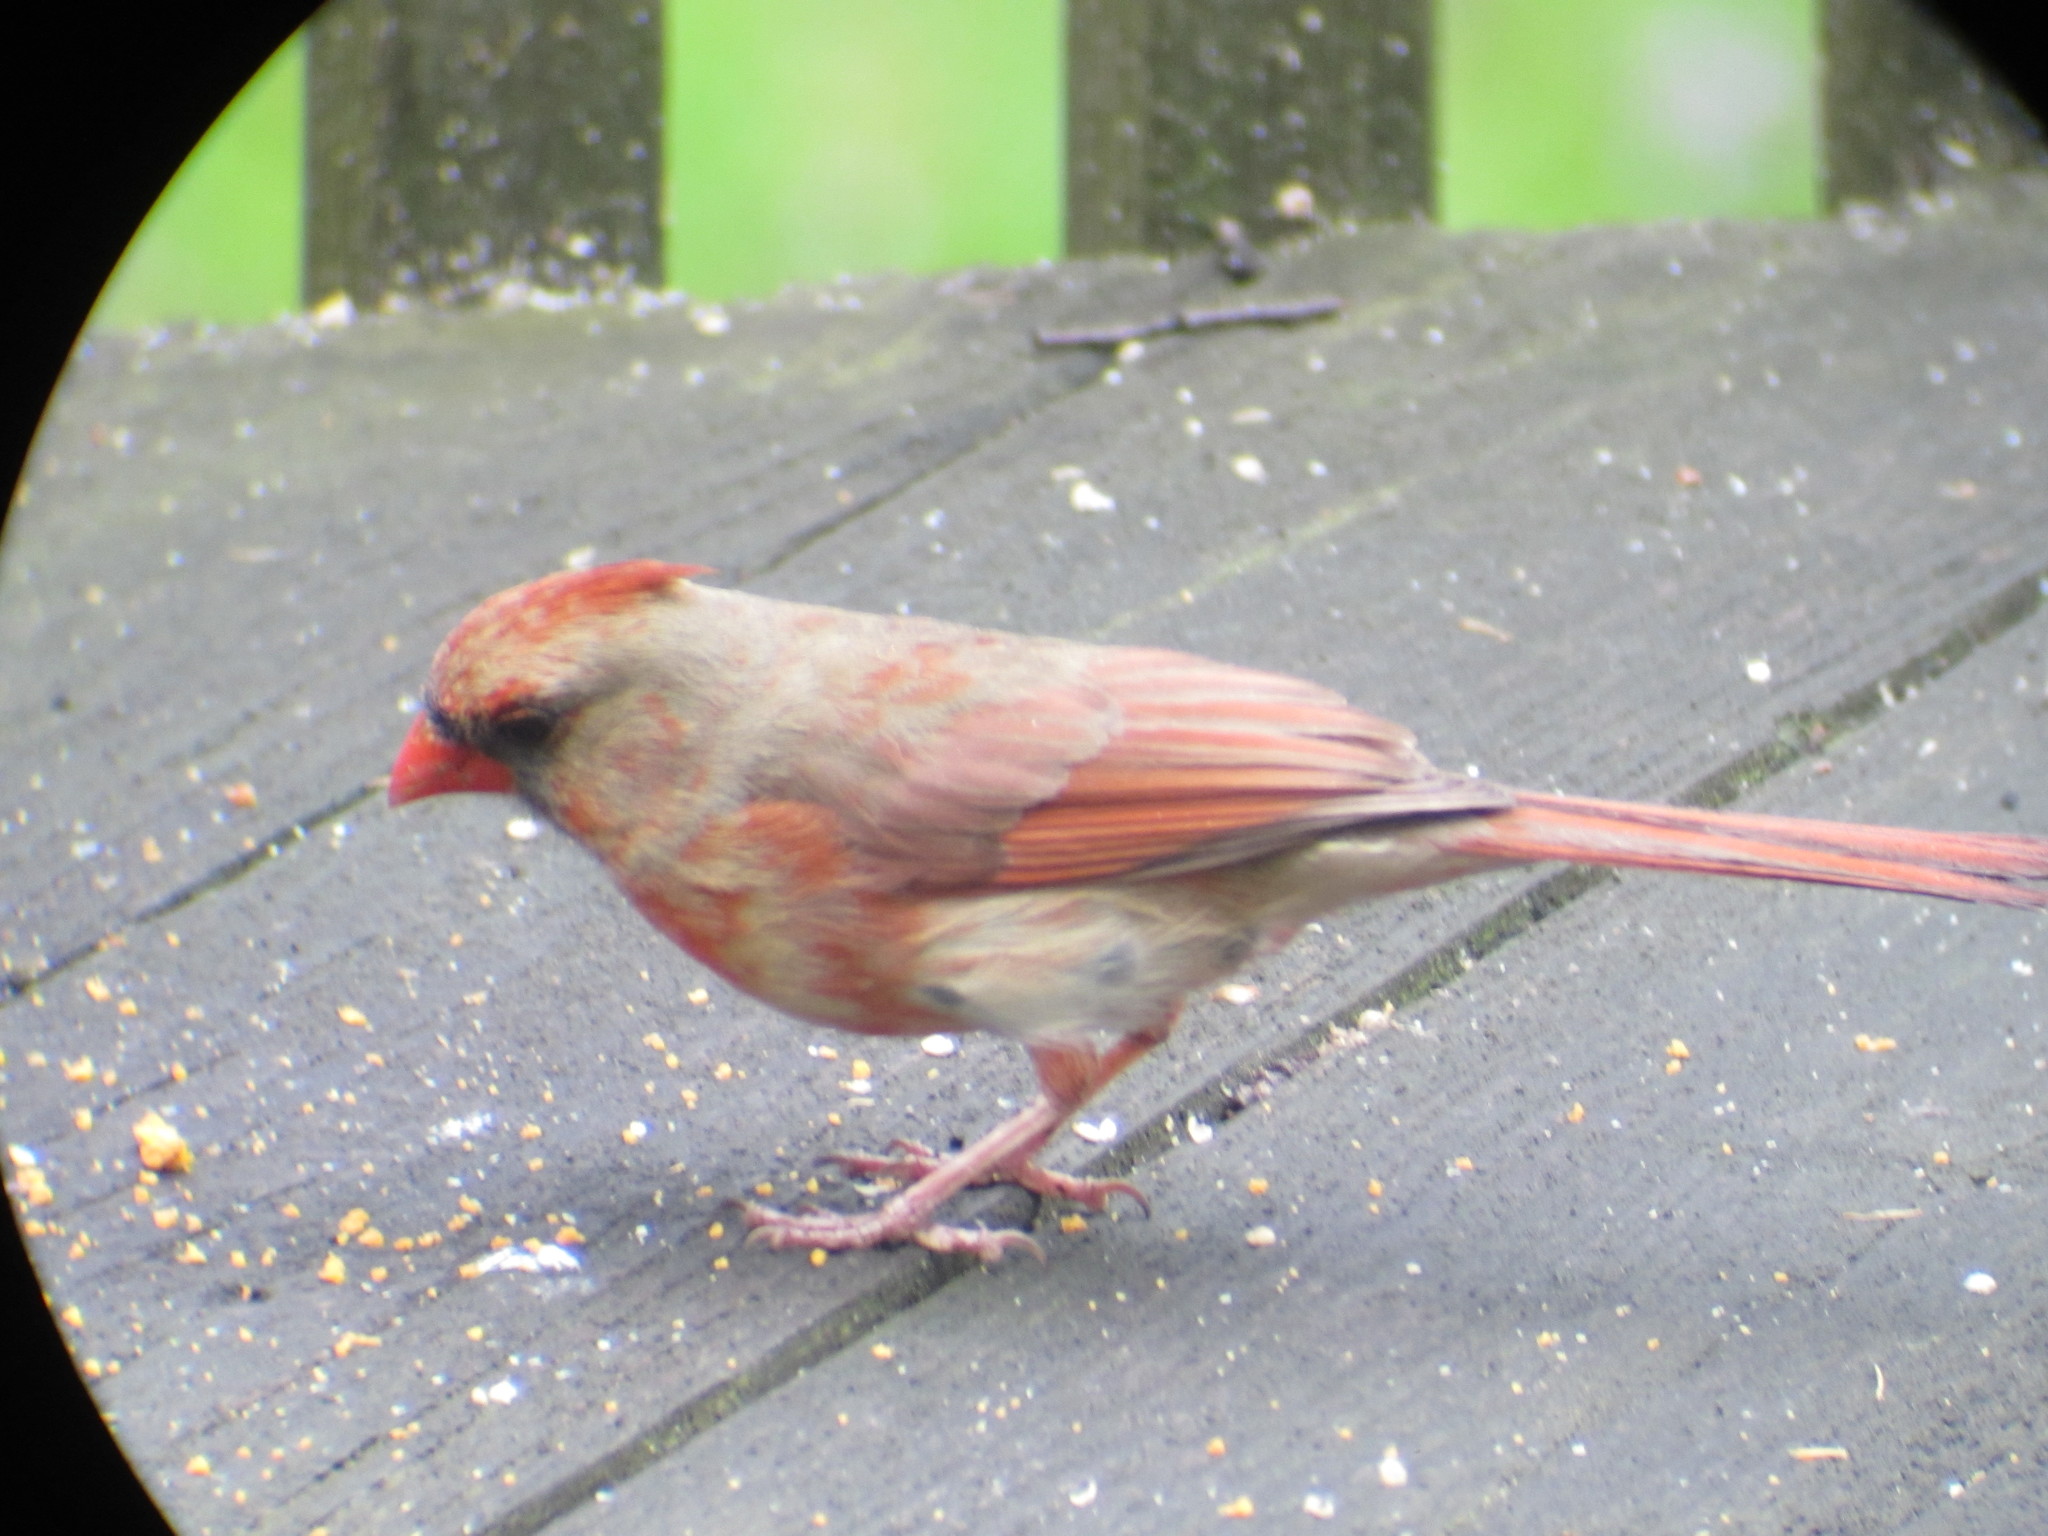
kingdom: Animalia
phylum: Chordata
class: Aves
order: Passeriformes
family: Cardinalidae
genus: Cardinalis
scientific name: Cardinalis cardinalis
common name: Northern cardinal
